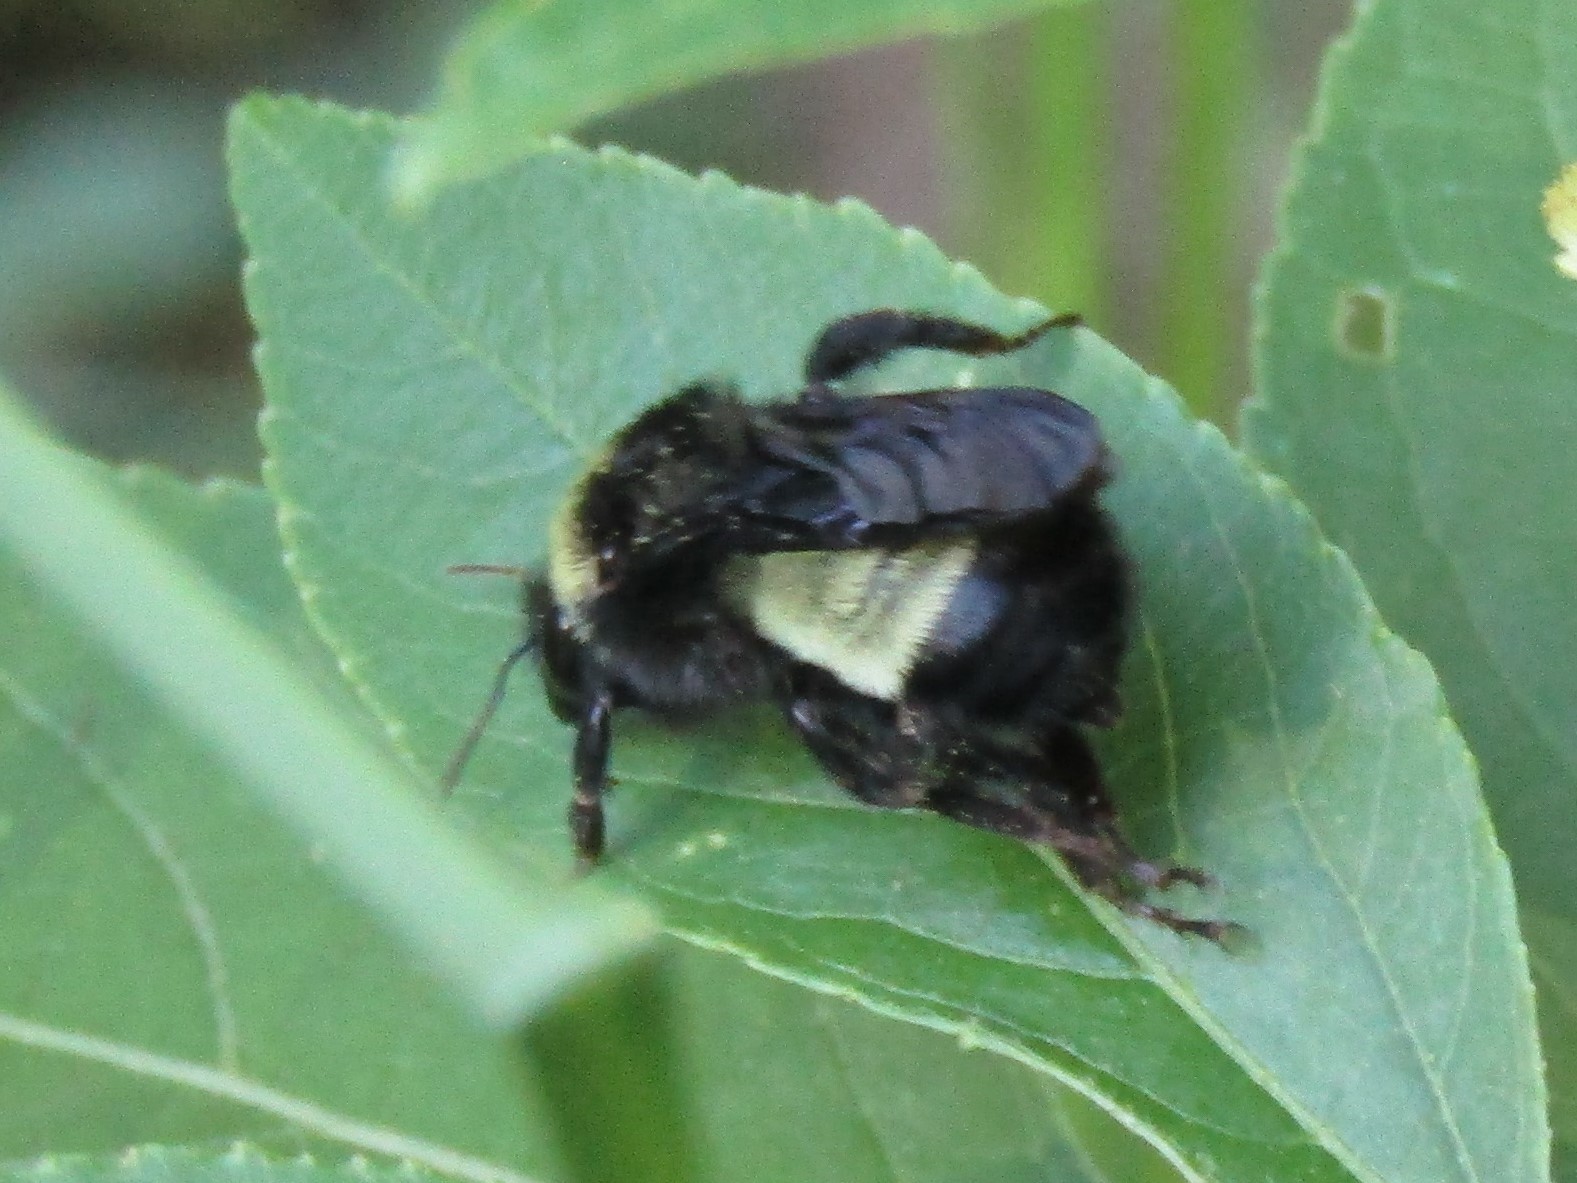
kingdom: Animalia
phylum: Arthropoda
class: Insecta
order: Hymenoptera
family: Apidae
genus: Bombus
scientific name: Bombus pensylvanicus
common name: Bumble bee
